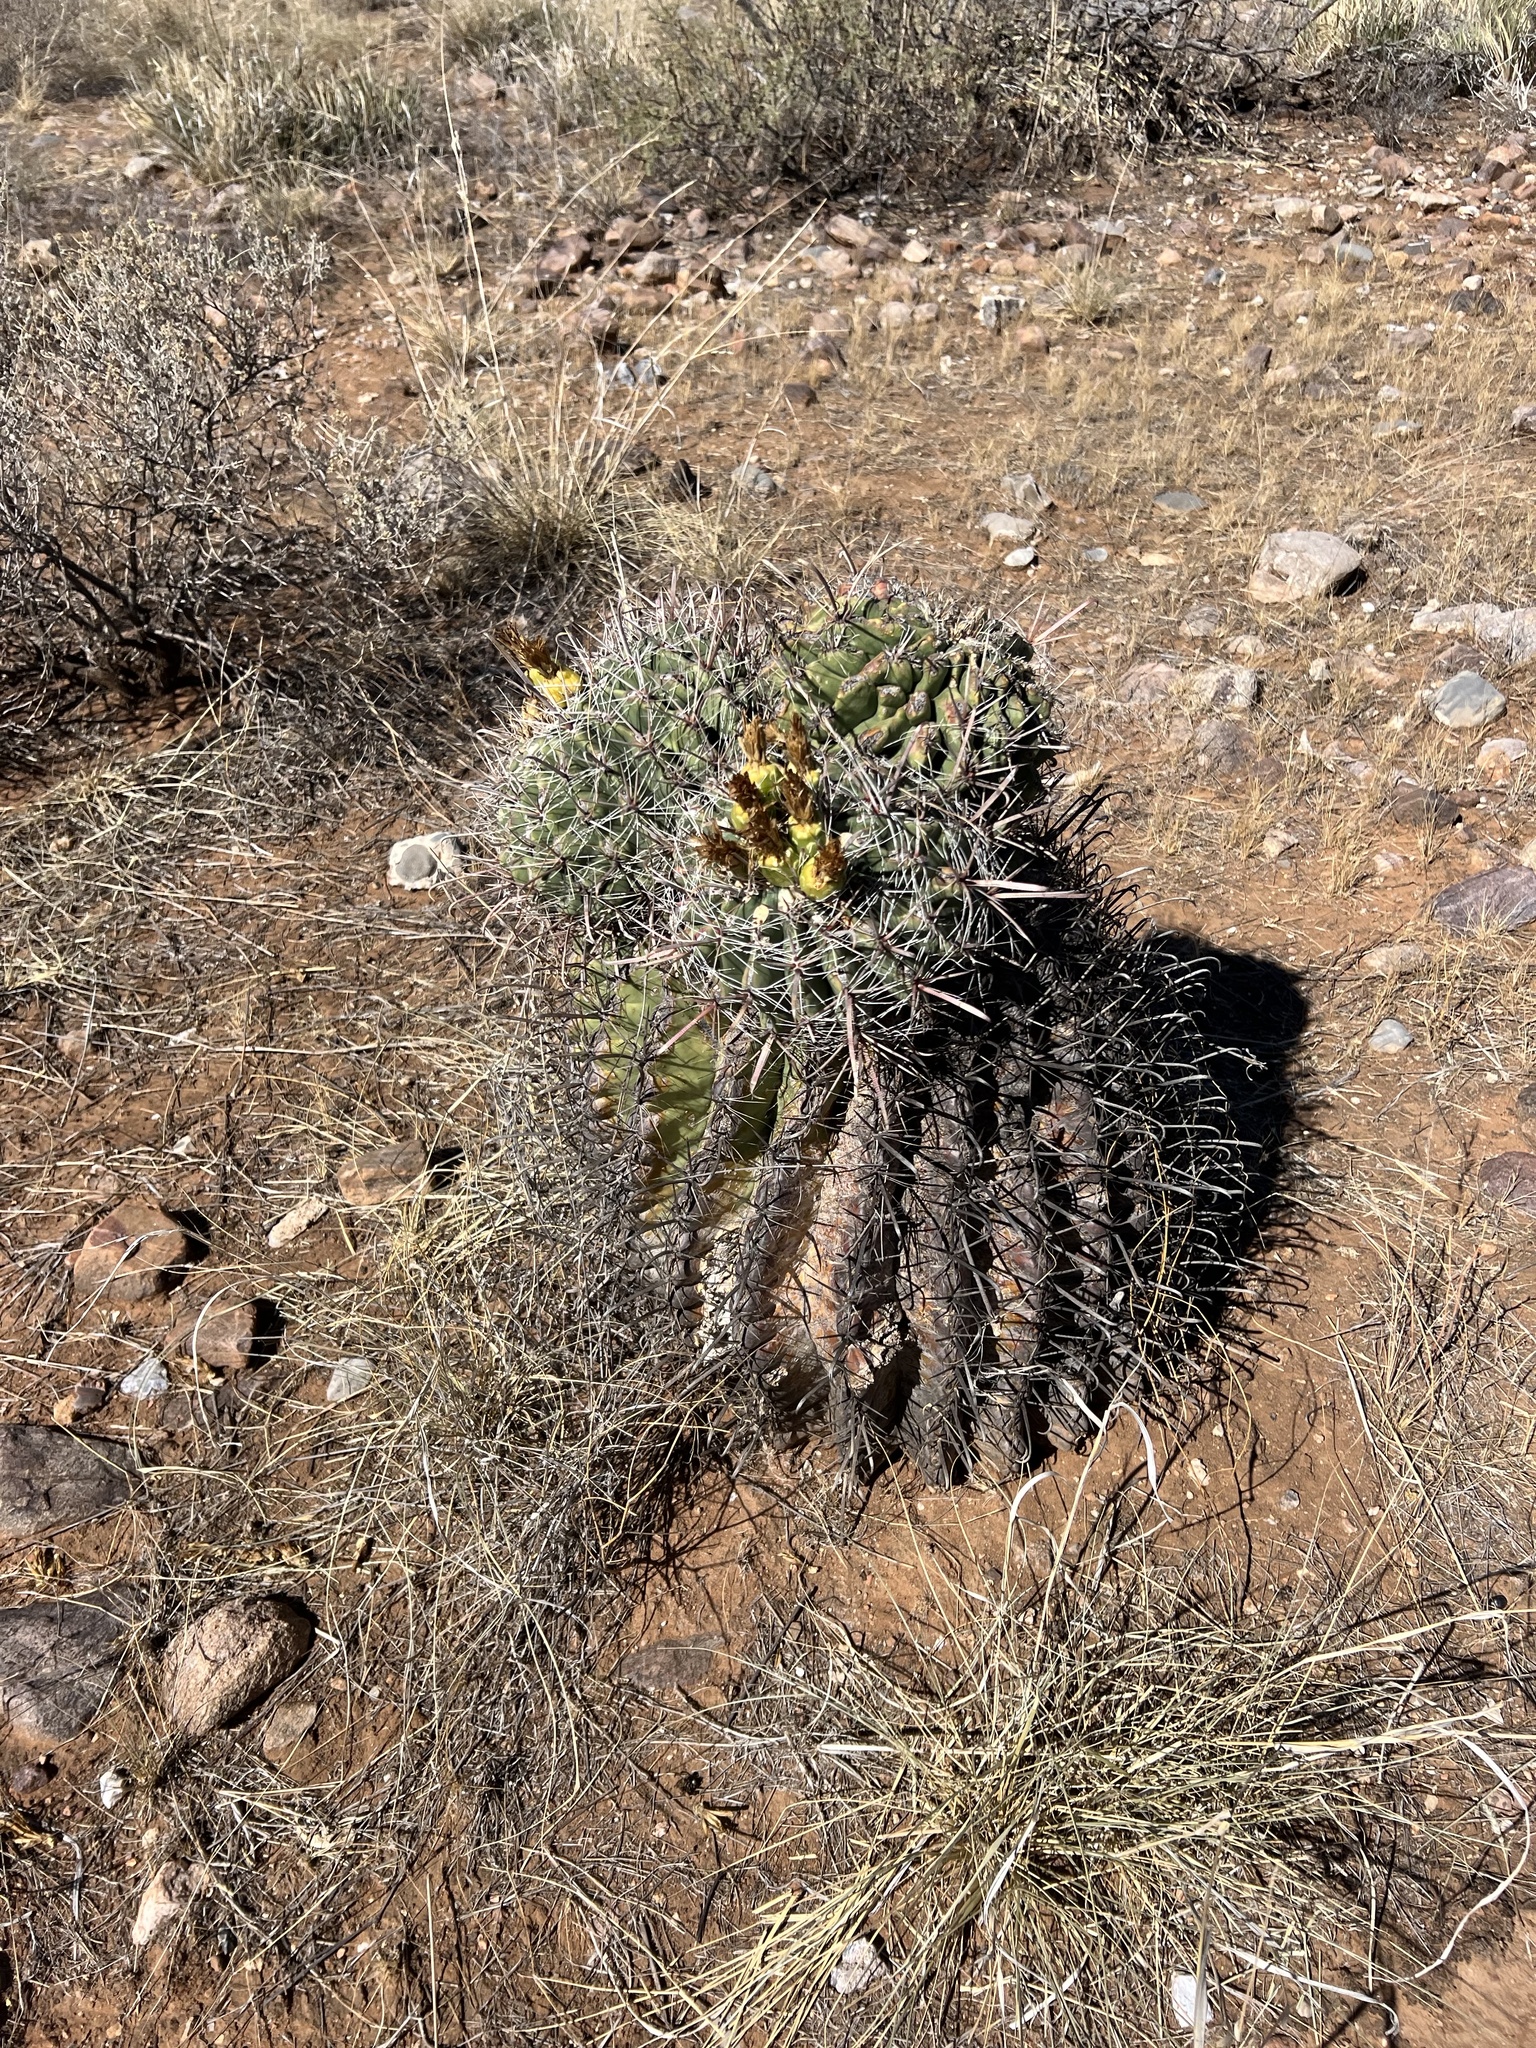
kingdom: Plantae
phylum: Tracheophyta
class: Magnoliopsida
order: Caryophyllales
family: Cactaceae
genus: Ferocactus
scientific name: Ferocactus wislizeni
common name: Candy barrel cactus
